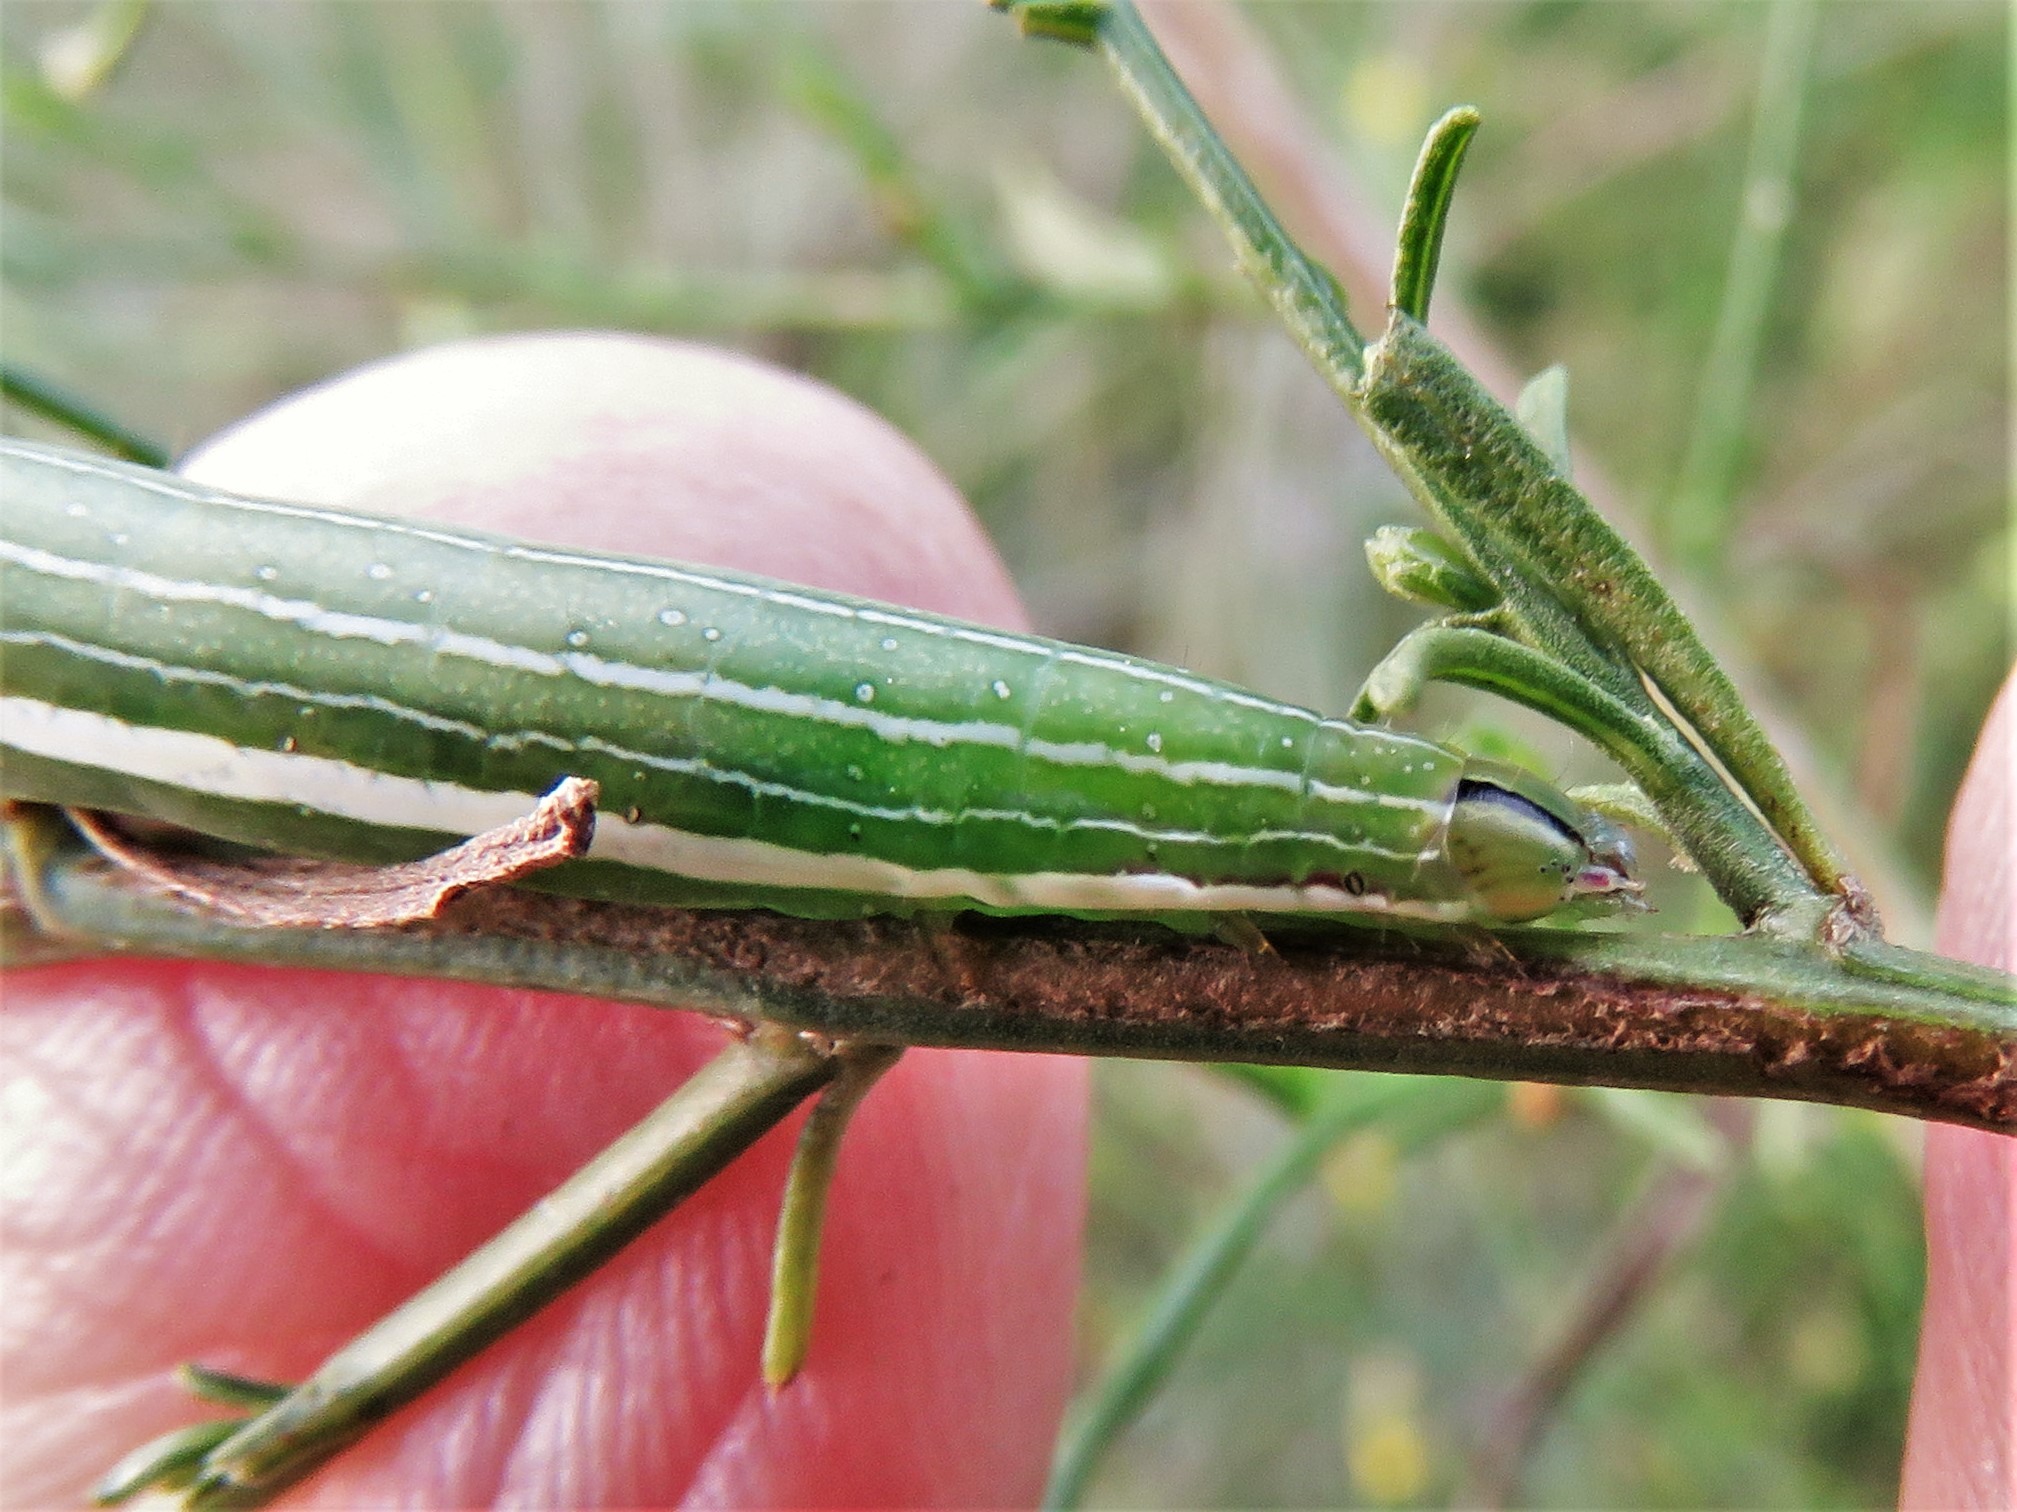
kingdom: Animalia
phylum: Arthropoda
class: Insecta
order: Lepidoptera
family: Noctuidae
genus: Condica
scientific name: Condica videns
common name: White-dotted groundling
